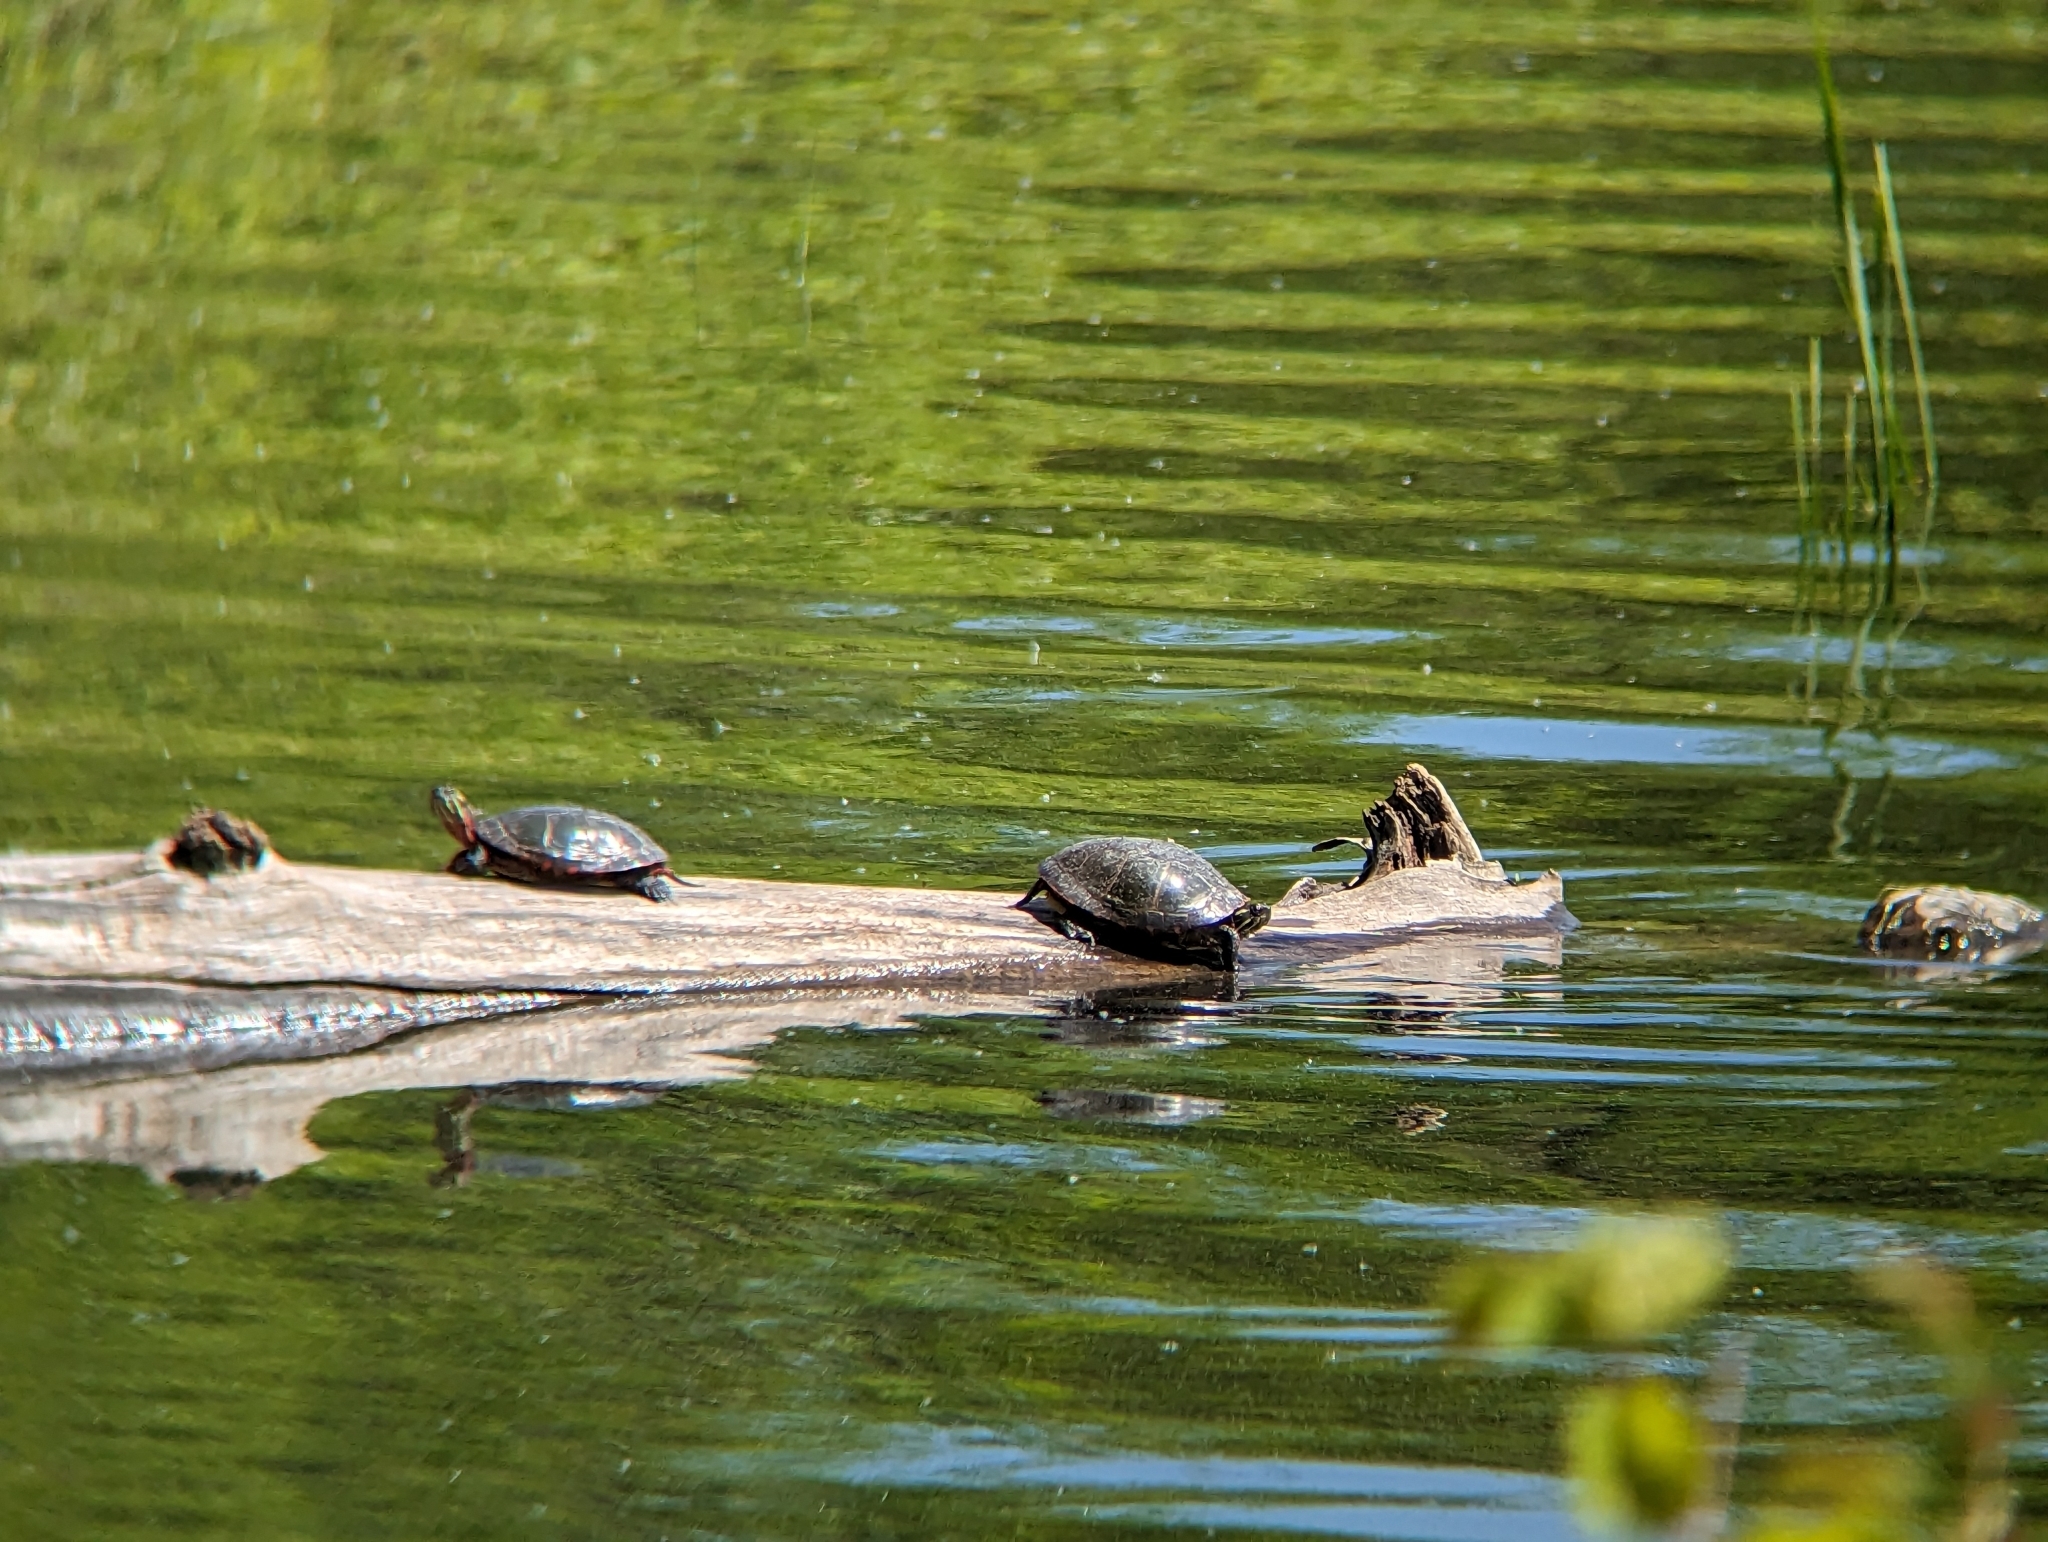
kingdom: Animalia
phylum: Chordata
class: Testudines
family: Emydidae
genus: Chrysemys
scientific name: Chrysemys picta
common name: Painted turtle
